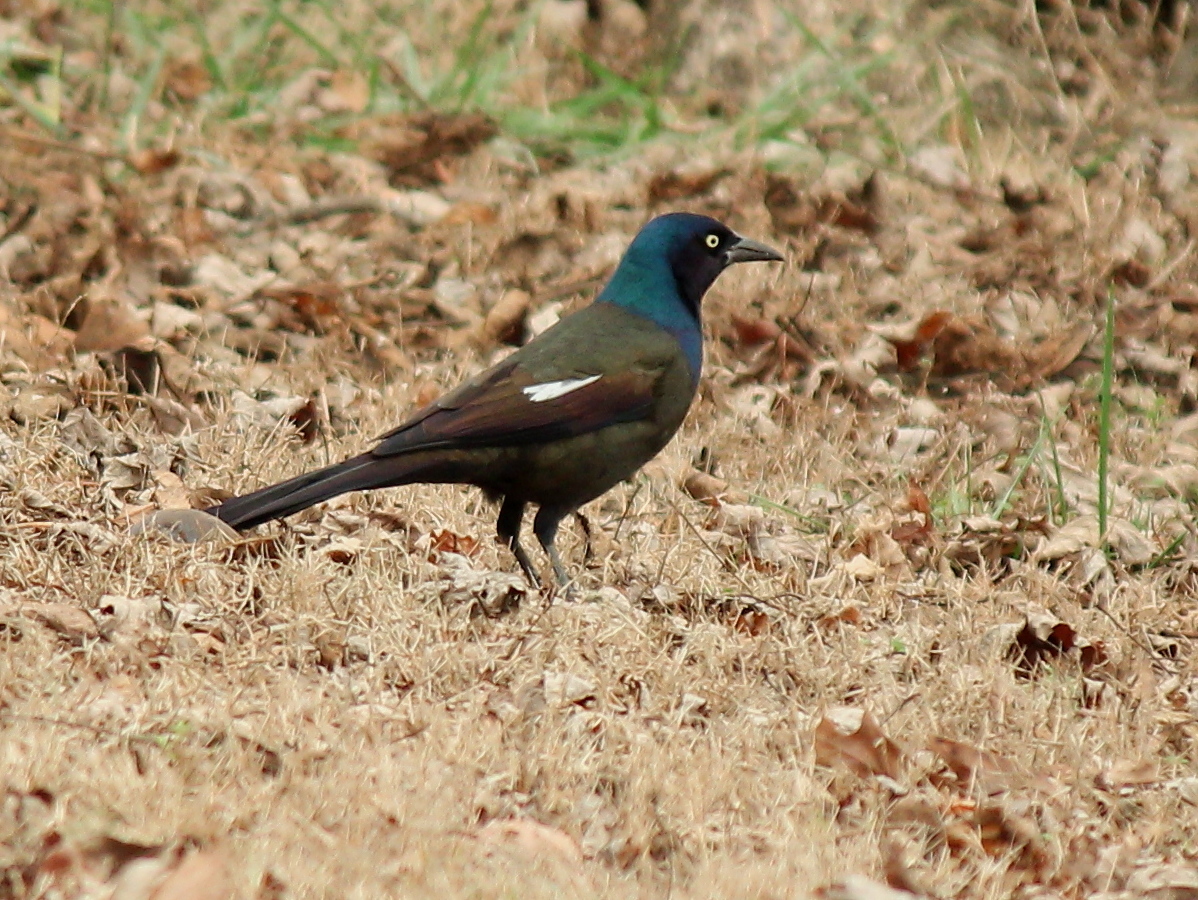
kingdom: Animalia
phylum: Chordata
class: Aves
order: Passeriformes
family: Icteridae
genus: Quiscalus
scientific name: Quiscalus quiscula
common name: Common grackle
